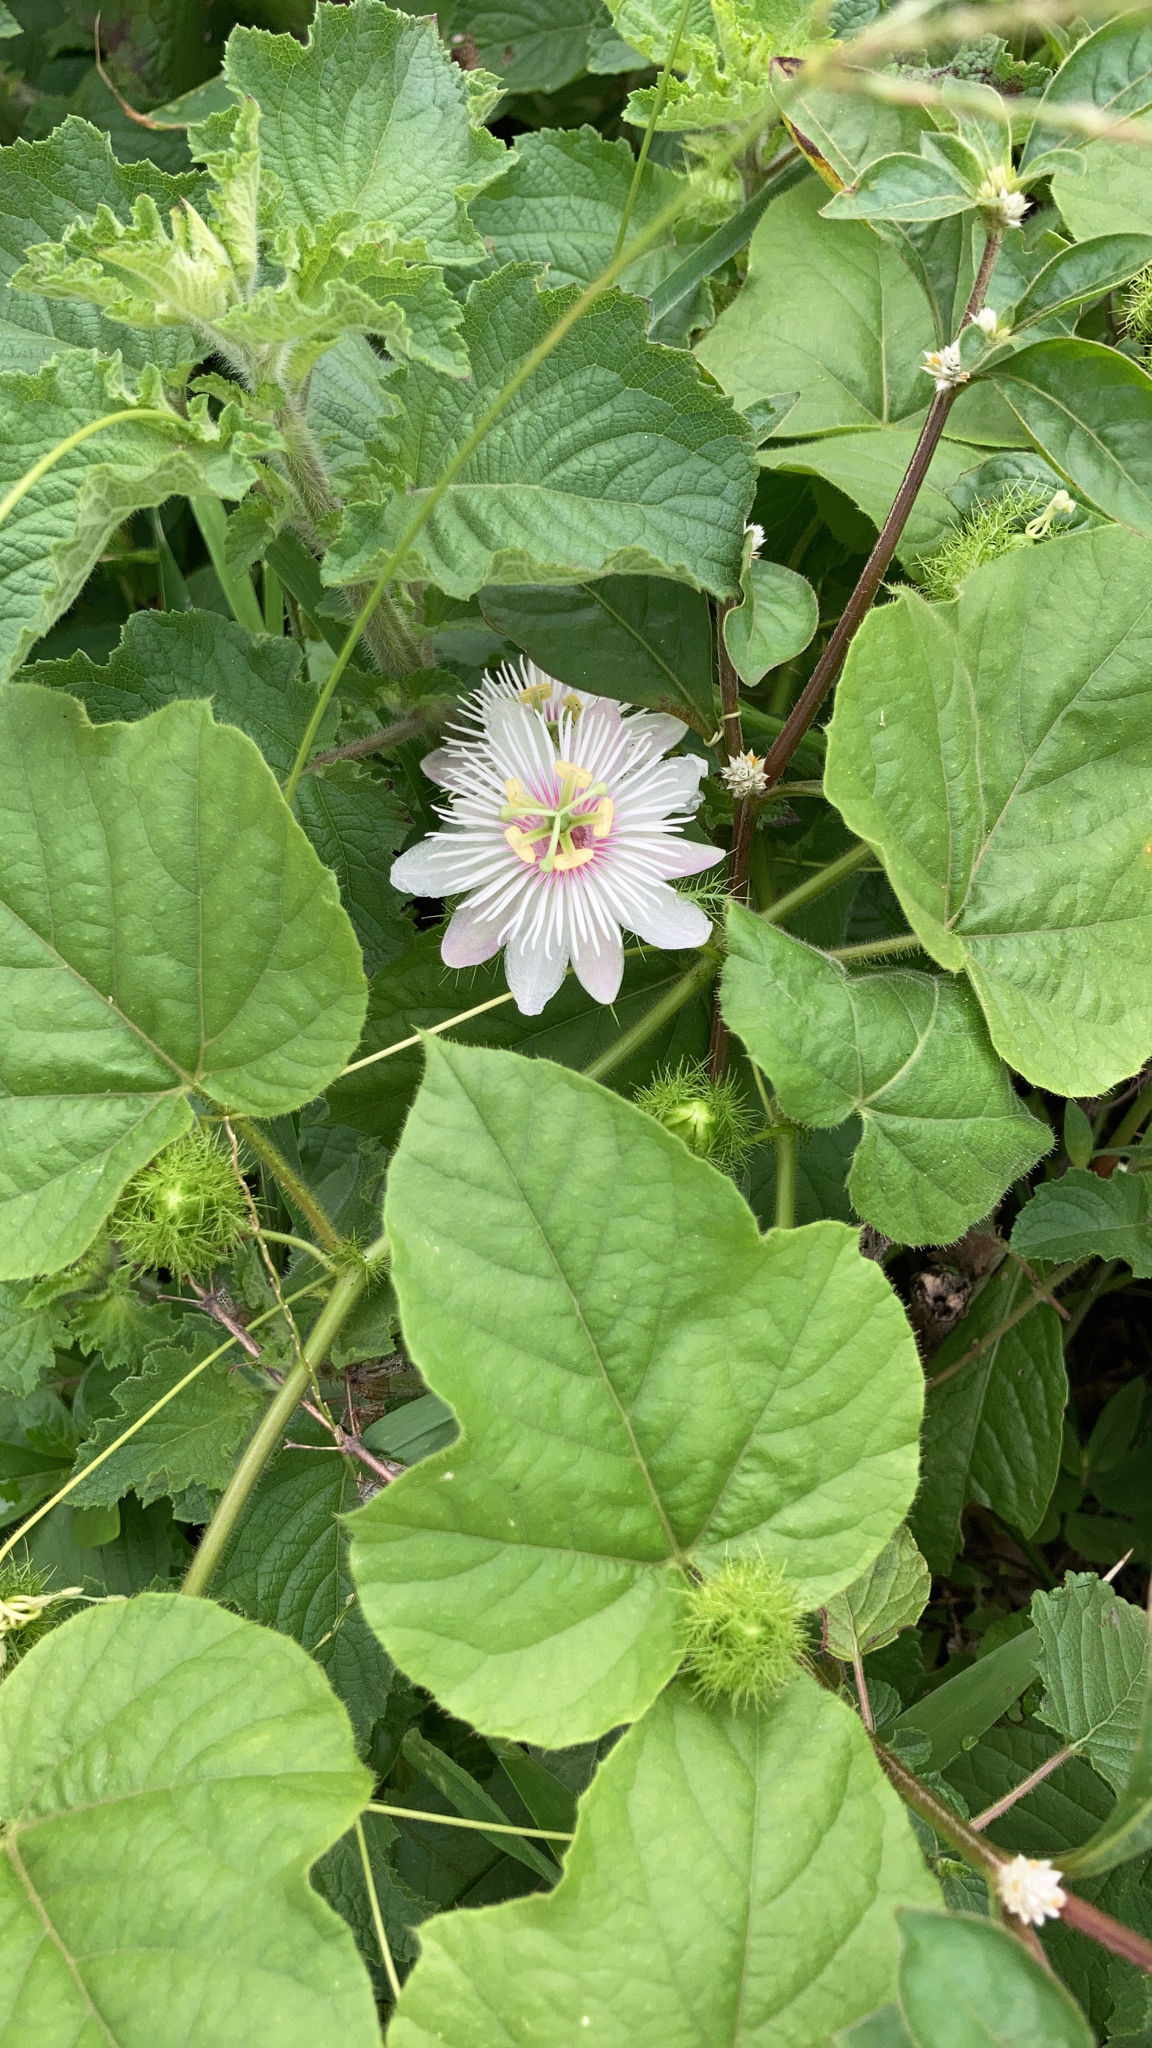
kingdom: Plantae
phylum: Tracheophyta
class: Magnoliopsida
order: Malpighiales
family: Passifloraceae
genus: Passiflora
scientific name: Passiflora foetida
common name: Fetid passionflower
